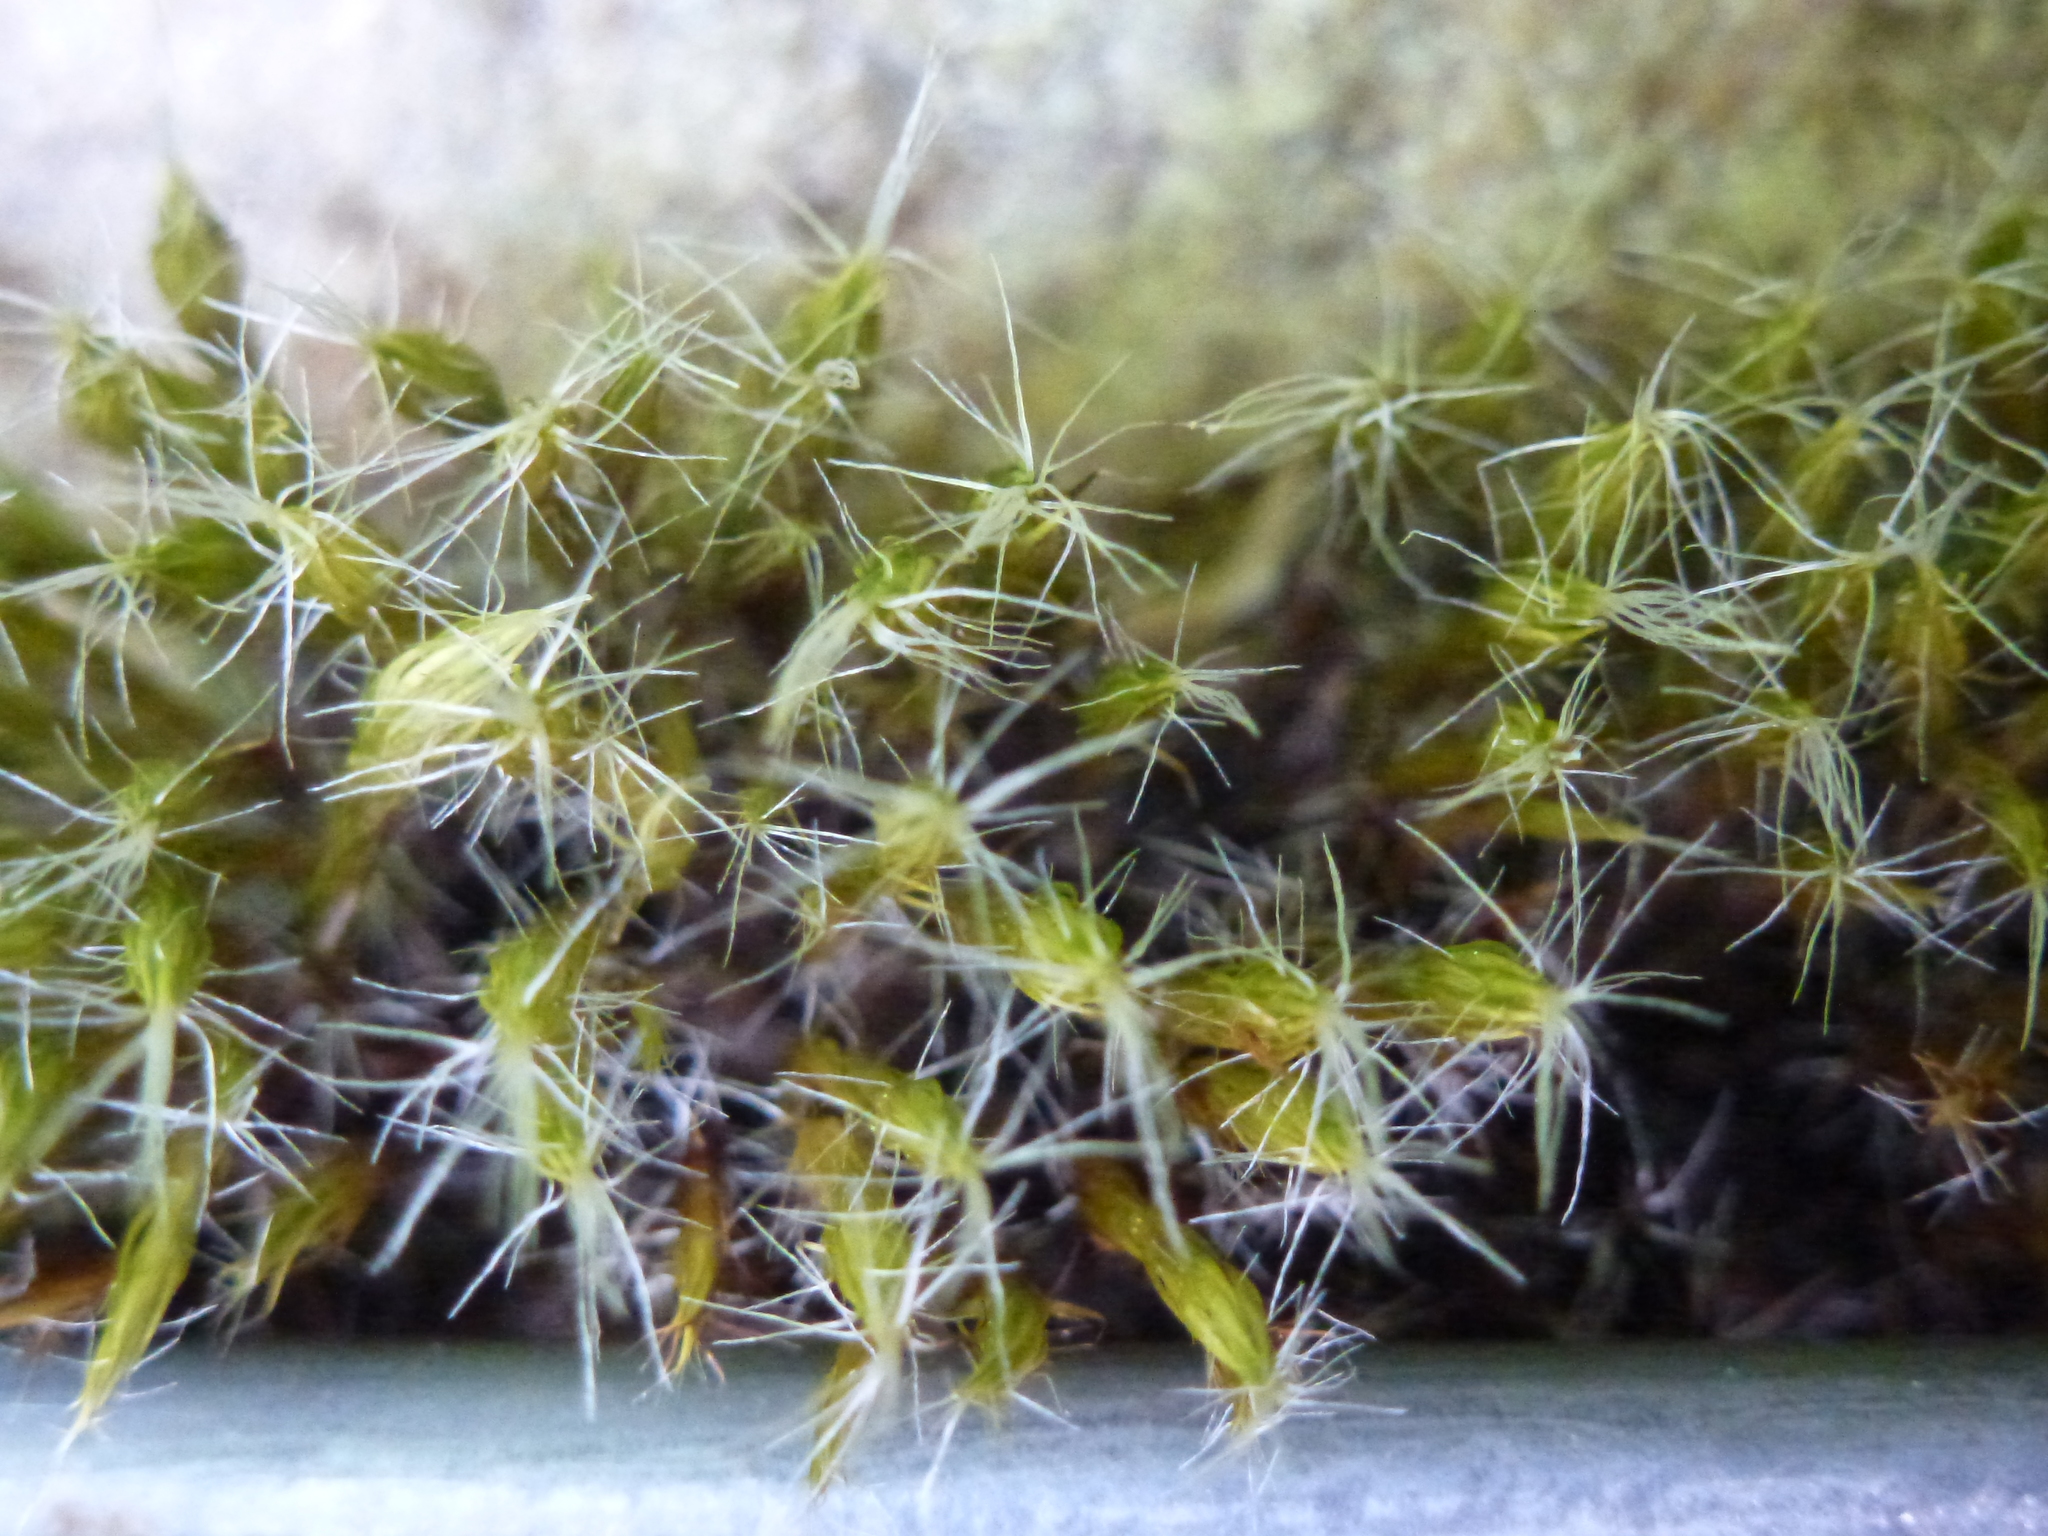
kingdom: Plantae
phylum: Bryophyta
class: Bryopsida
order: Dicranales
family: Leucobryaceae
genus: Campylopus
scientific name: Campylopus introflexus
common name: Heath star moss
